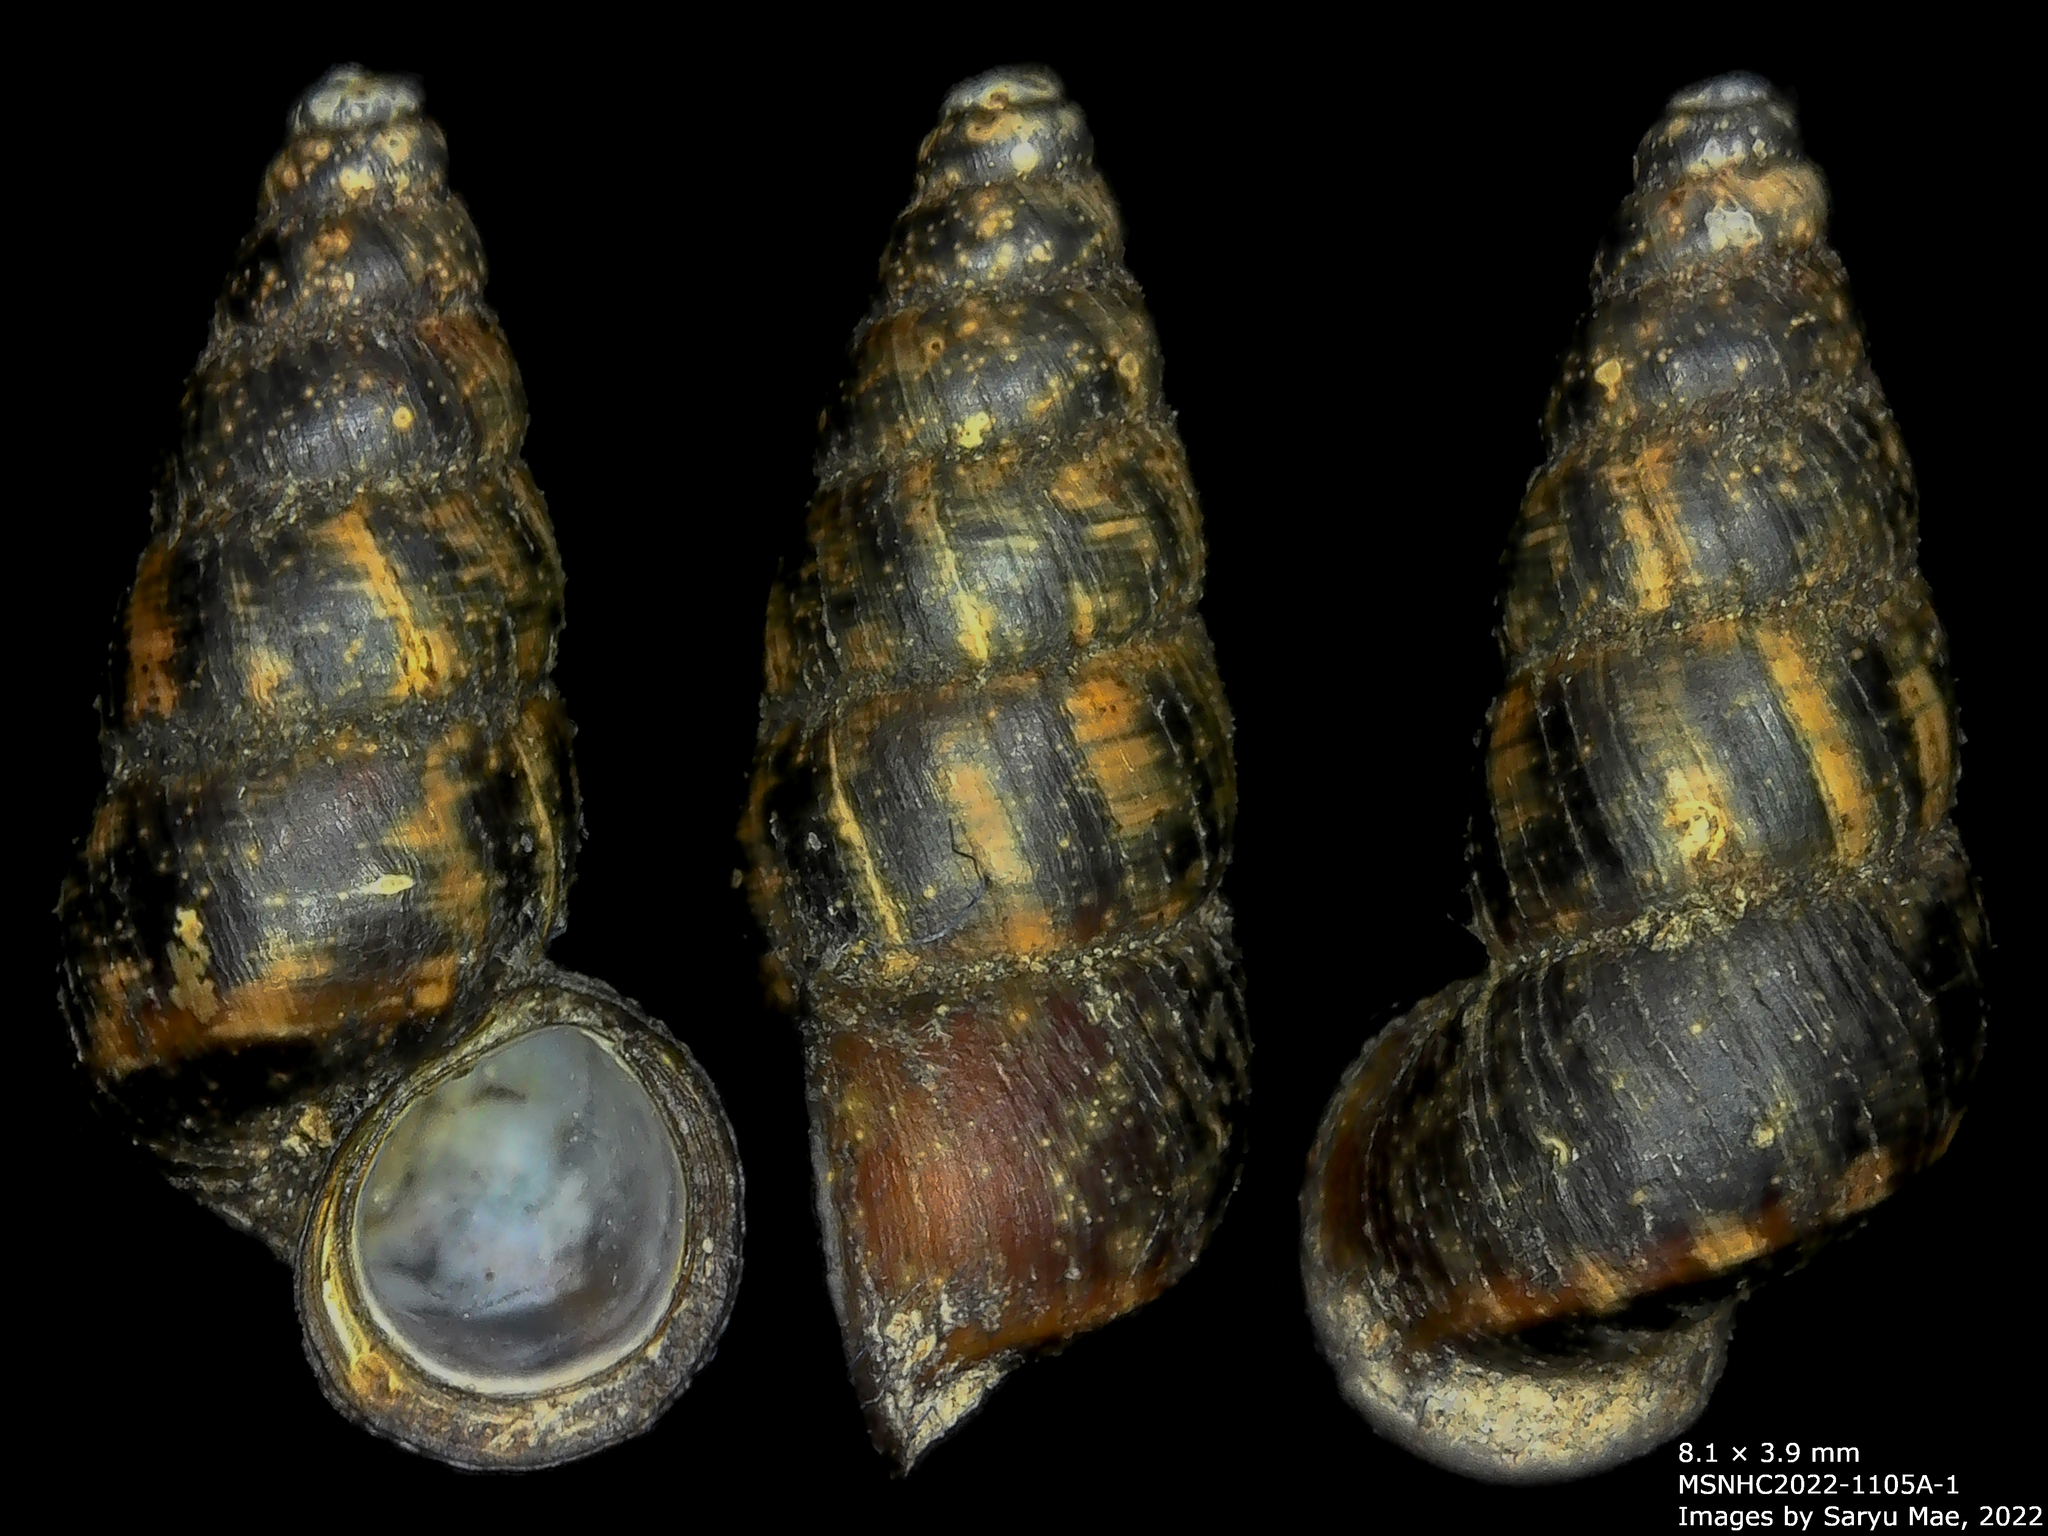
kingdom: Animalia
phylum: Mollusca
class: Gastropoda
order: Architaenioglossa
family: Pupinidae
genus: Liarea
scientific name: Liarea turriculata
